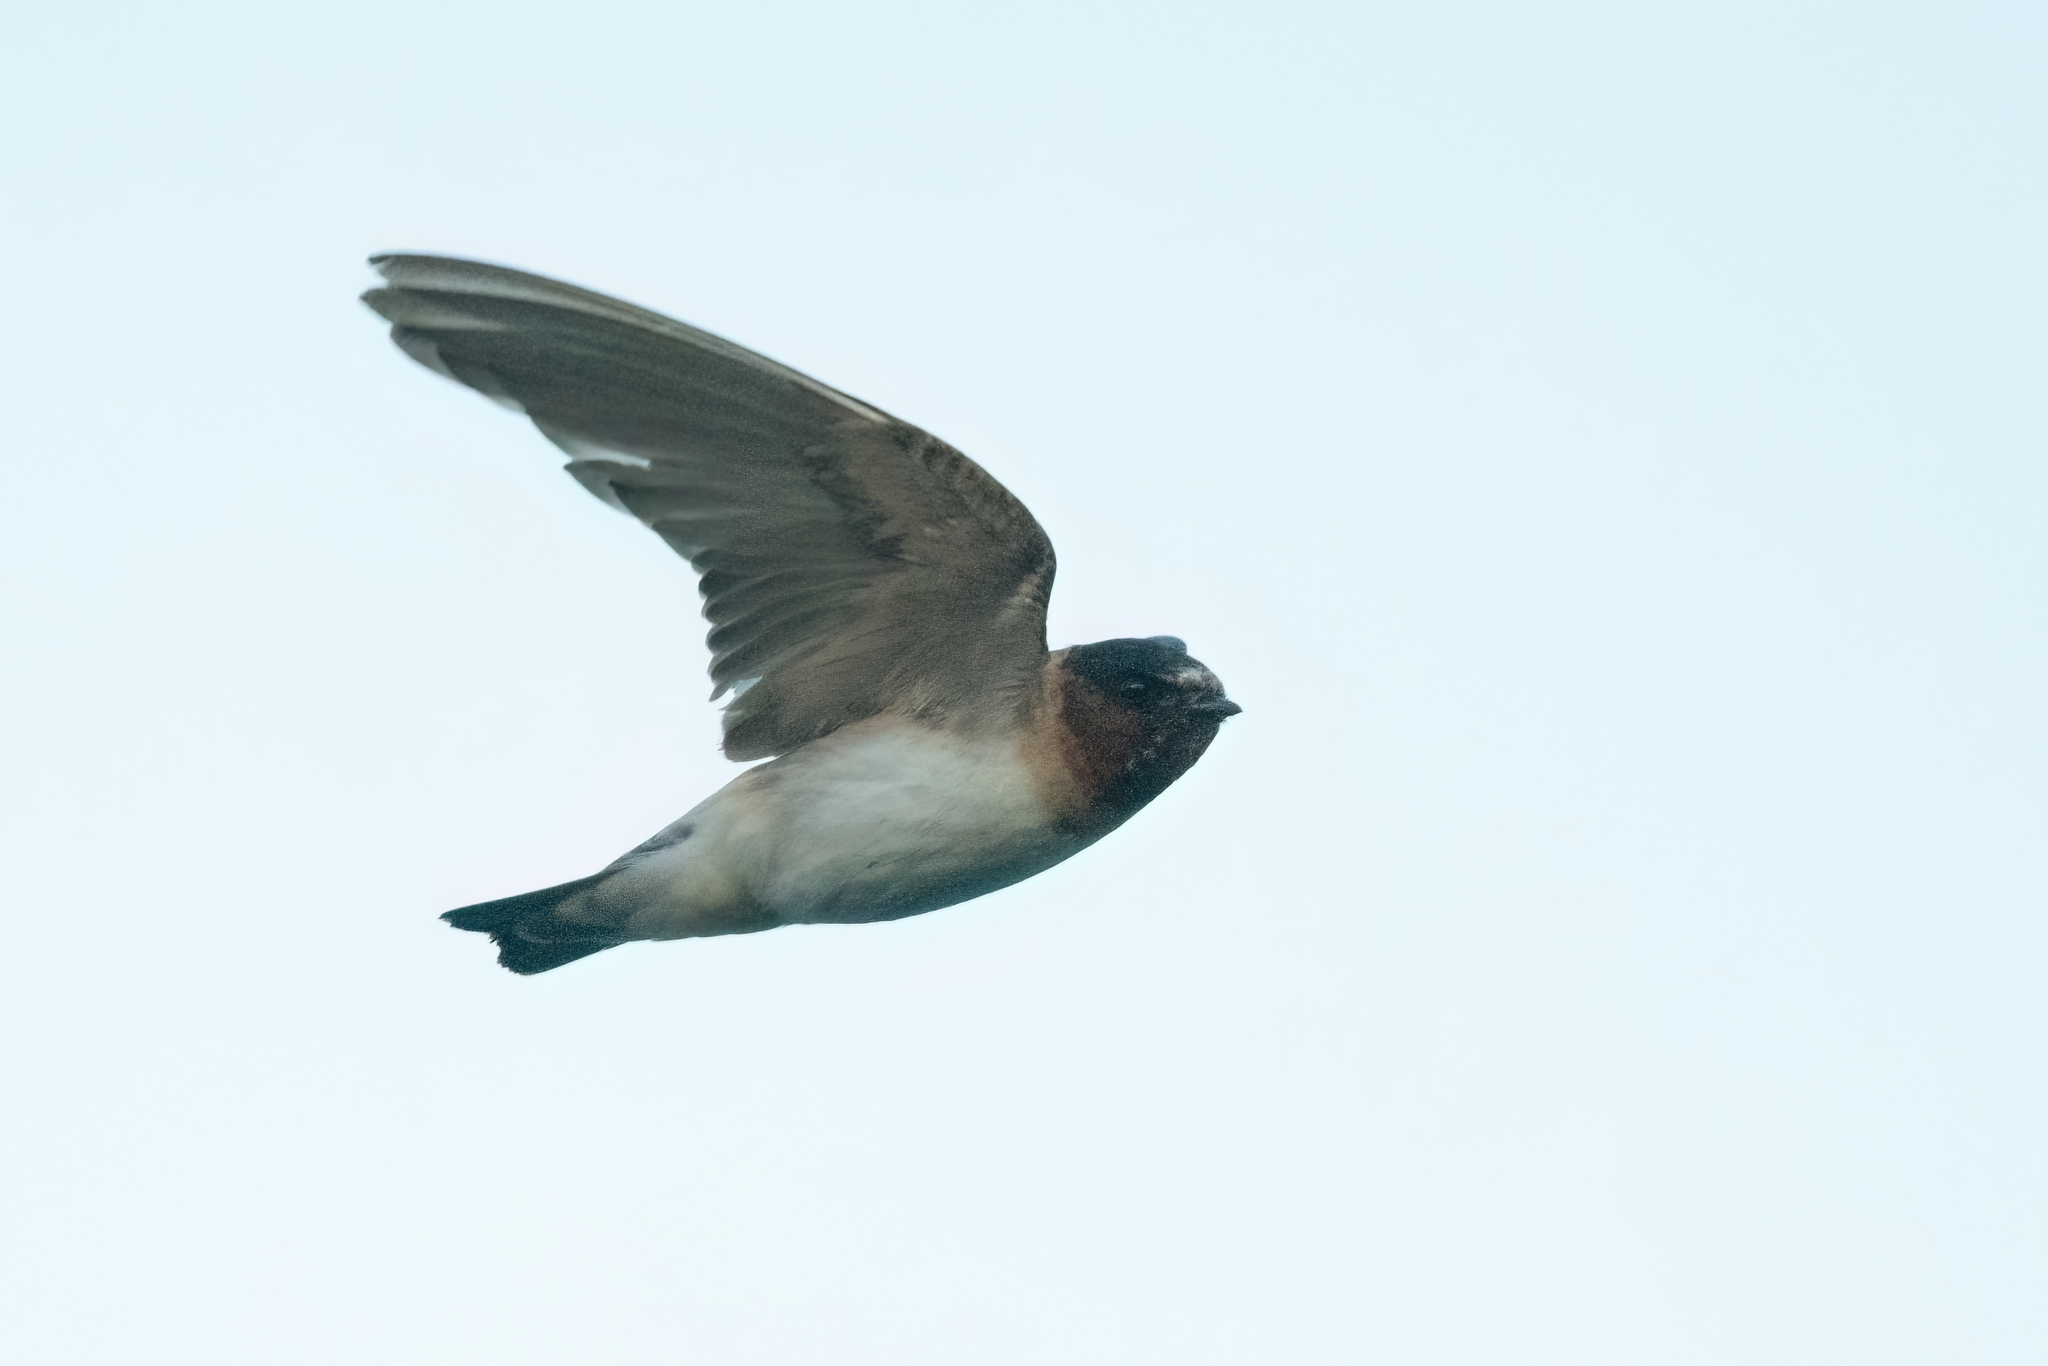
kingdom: Animalia
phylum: Chordata
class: Aves
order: Passeriformes
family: Hirundinidae
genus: Petrochelidon
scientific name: Petrochelidon pyrrhonota
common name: American cliff swallow
